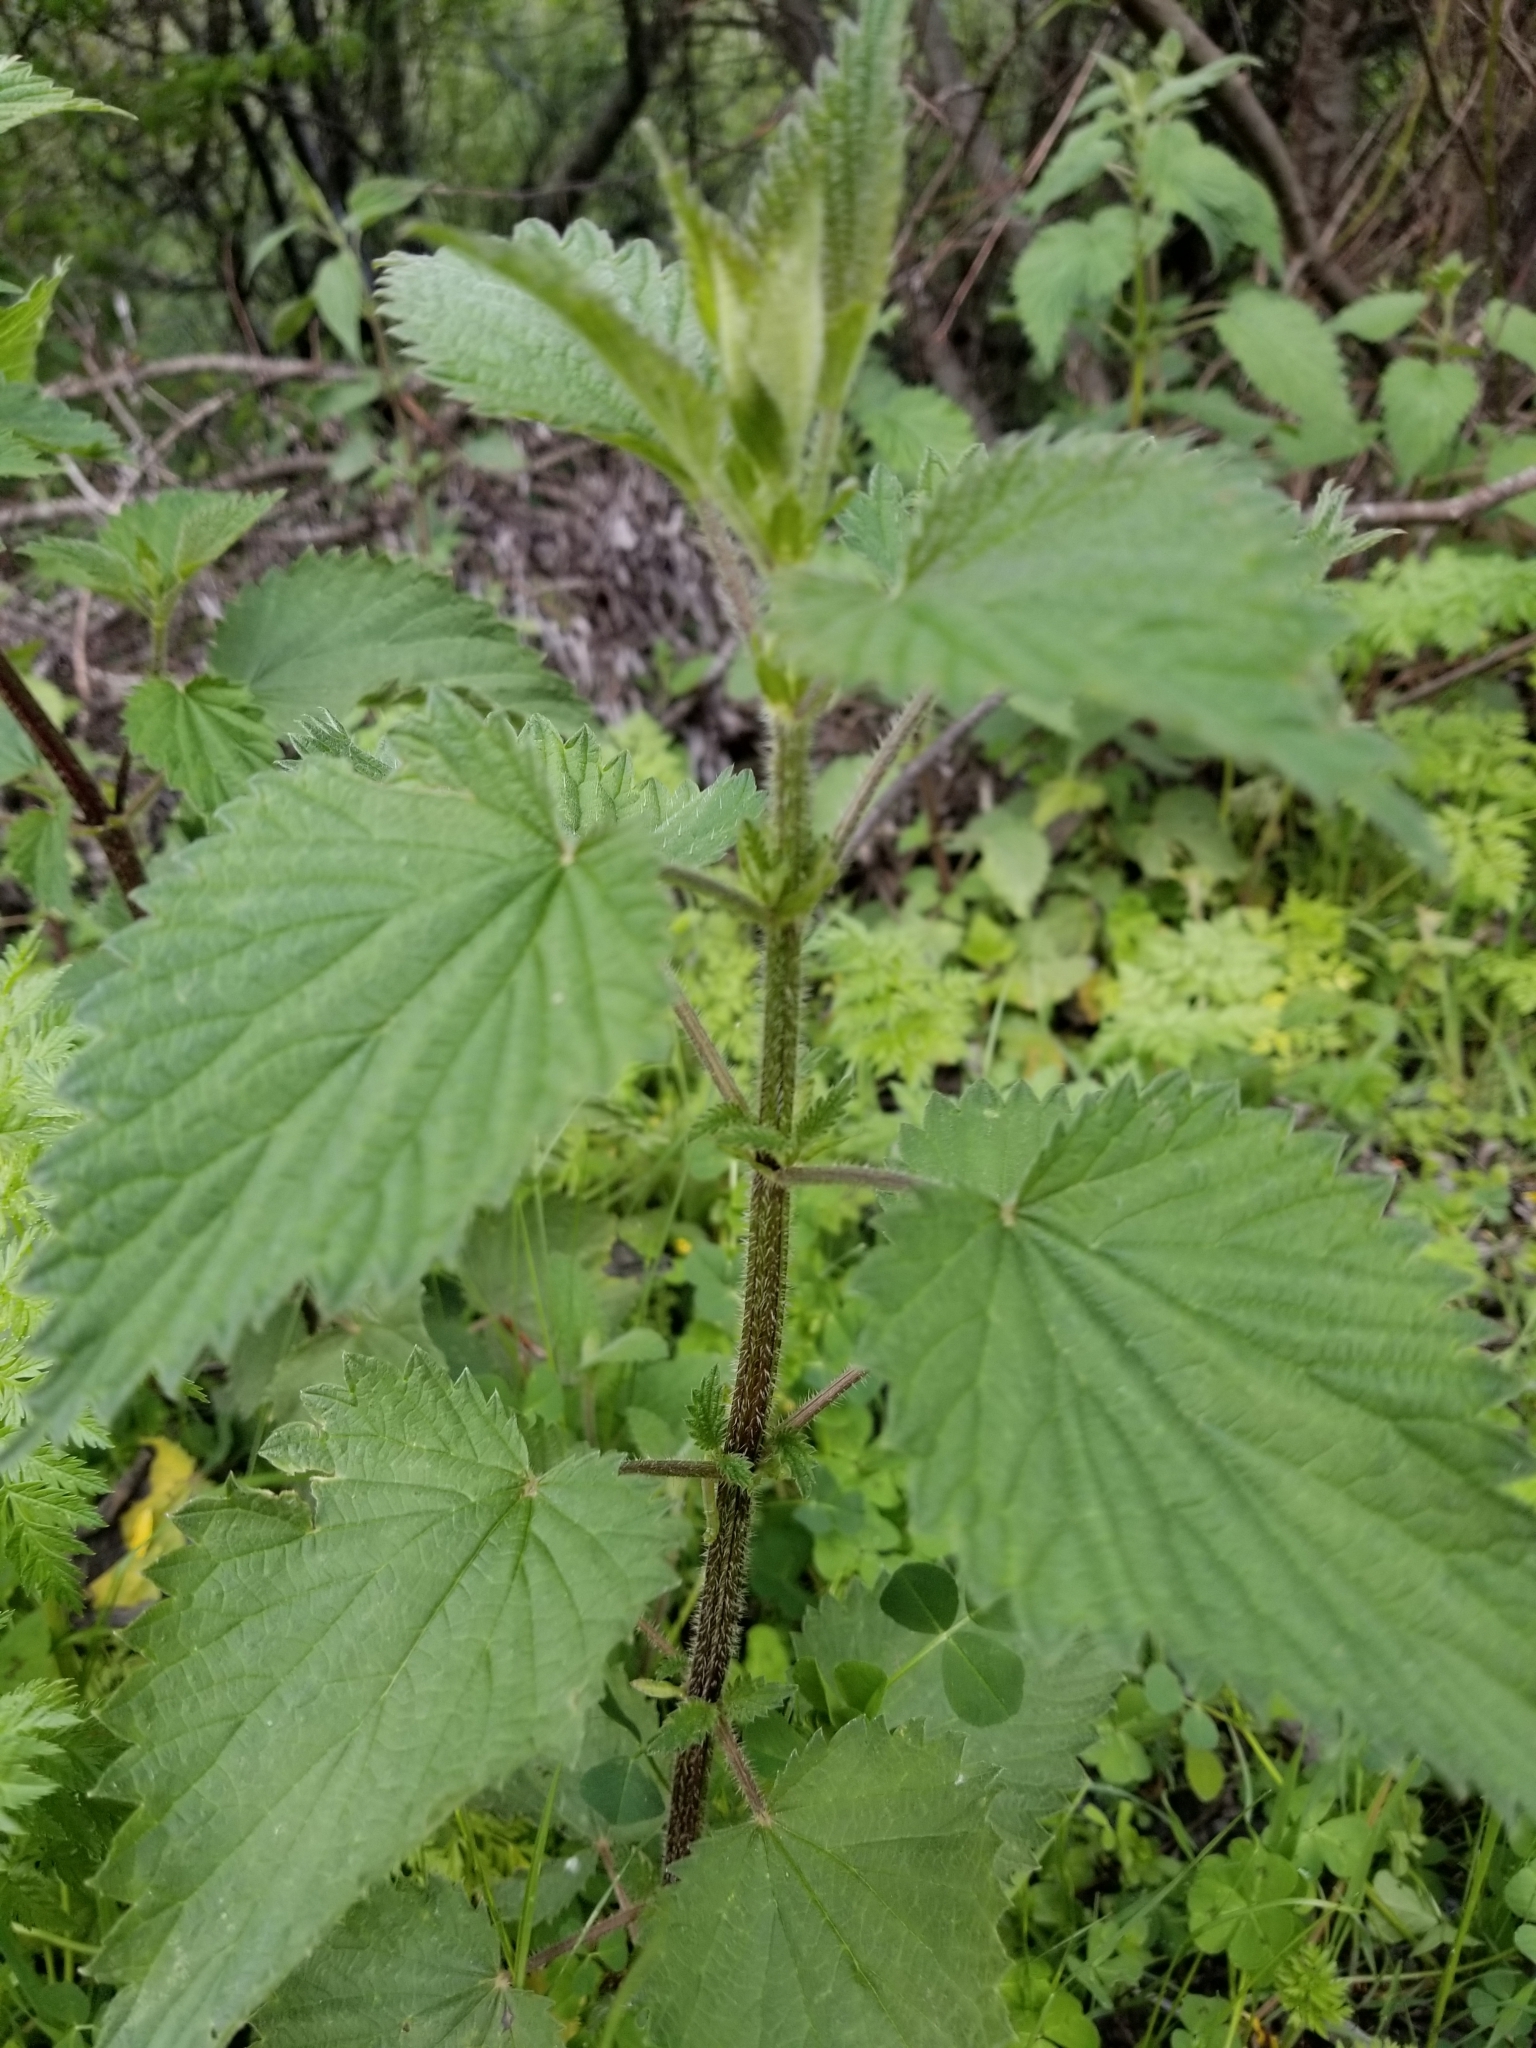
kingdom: Plantae
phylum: Tracheophyta
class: Magnoliopsida
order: Rosales
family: Urticaceae
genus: Urtica
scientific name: Urtica dioica
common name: Common nettle
